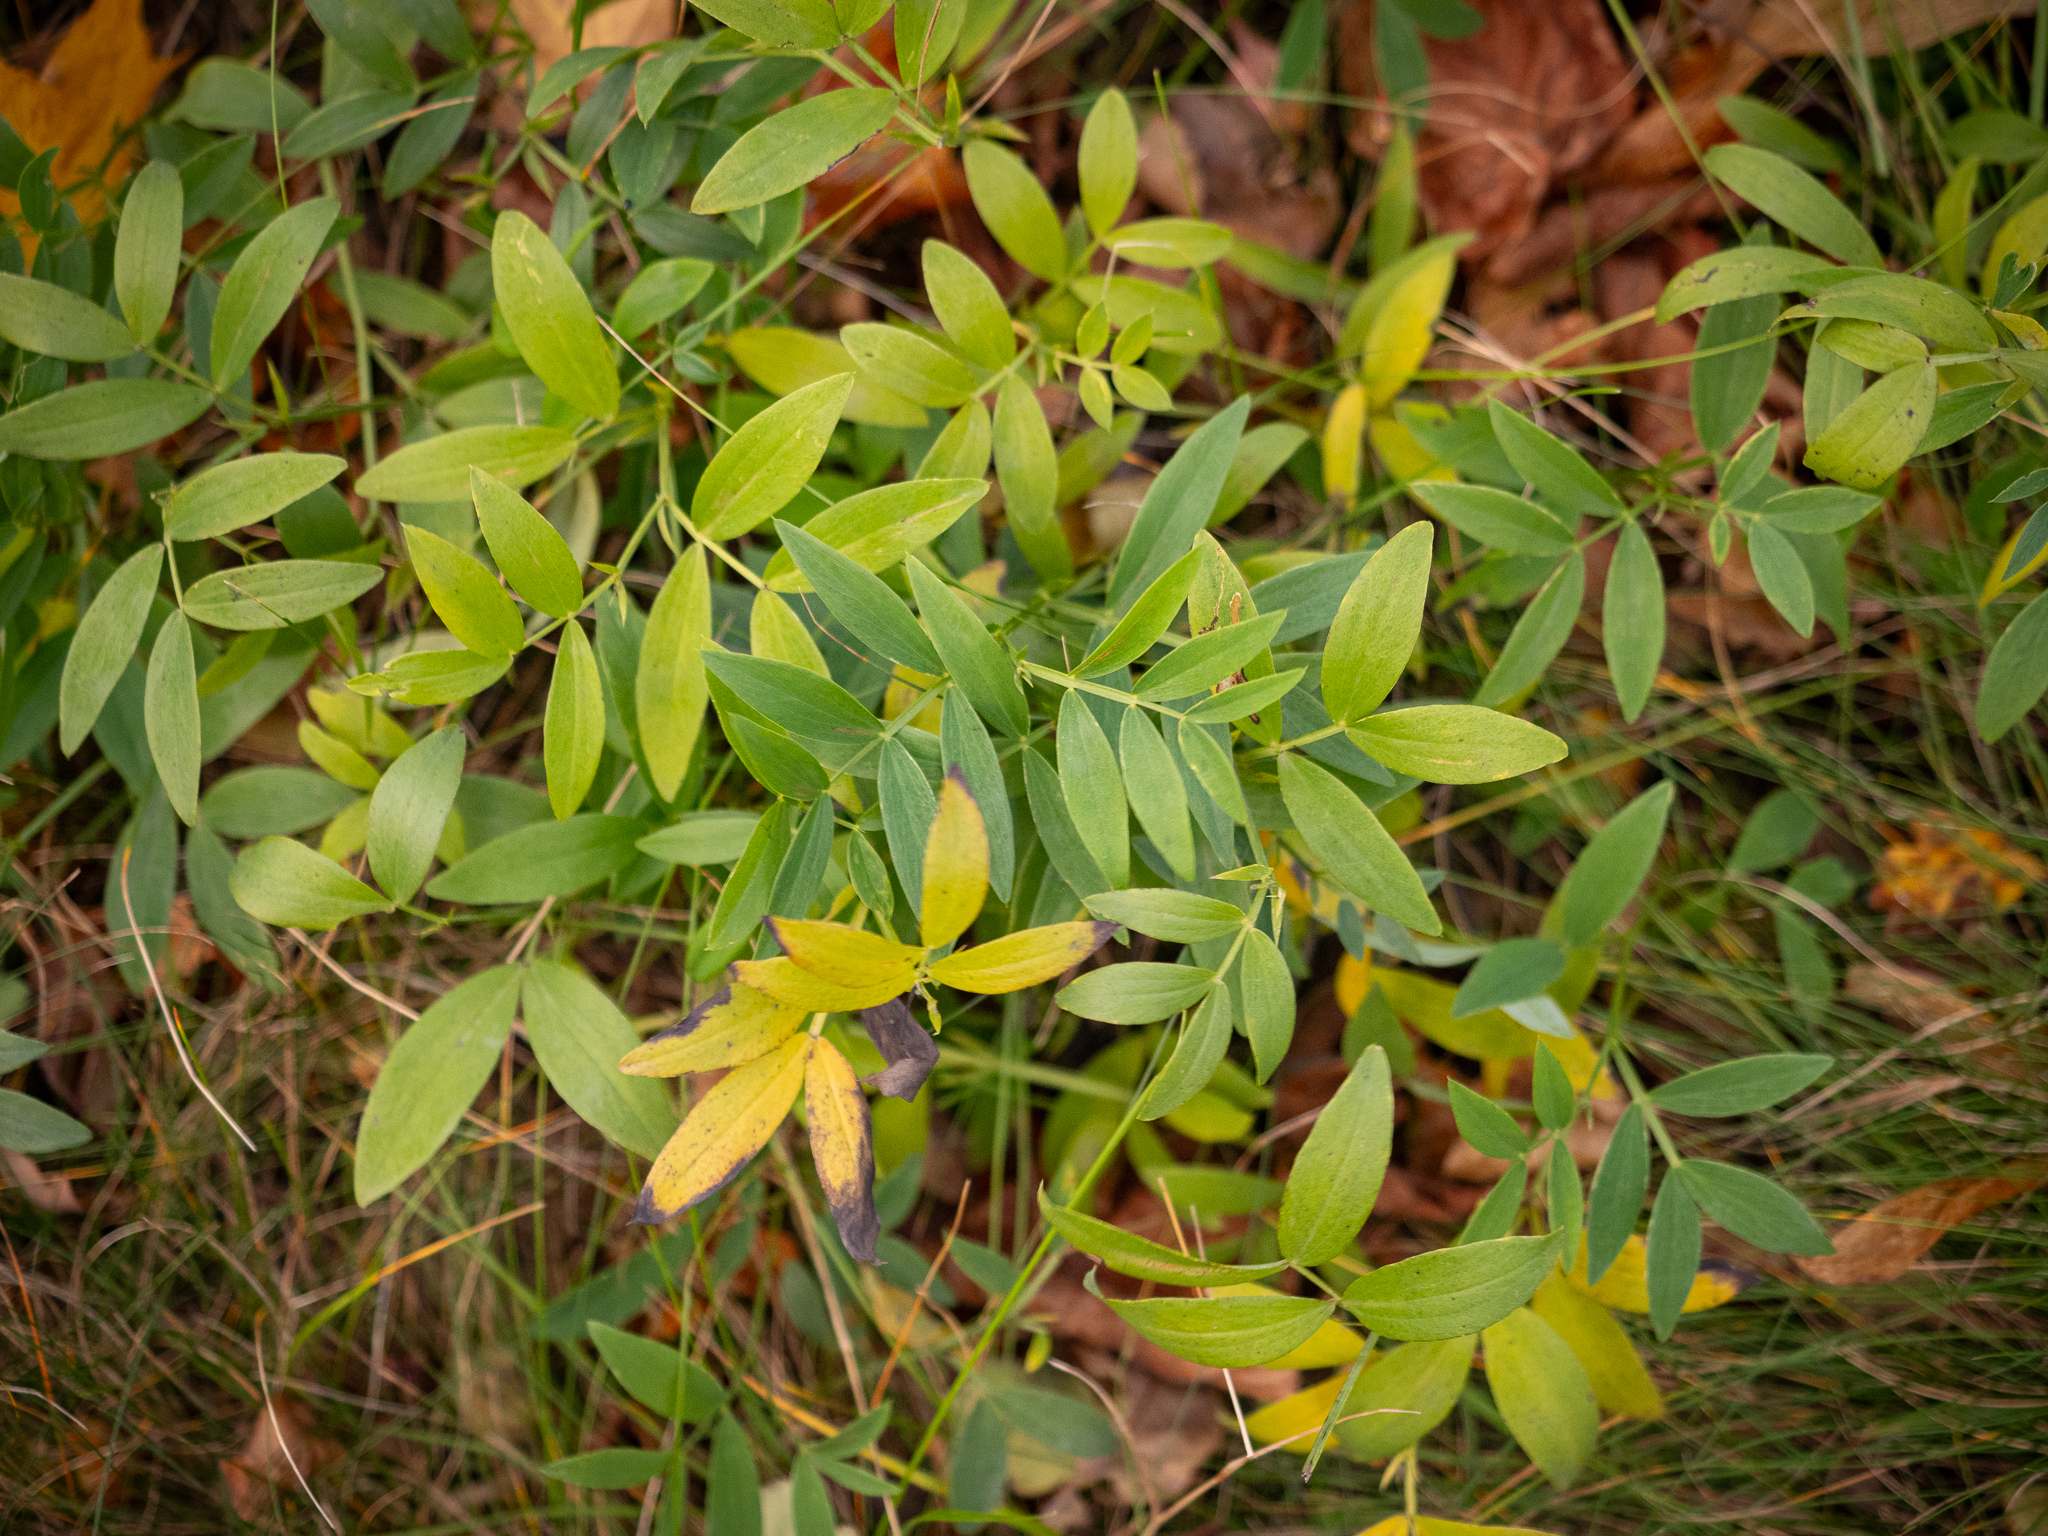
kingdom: Plantae
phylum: Tracheophyta
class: Magnoliopsida
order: Fabales
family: Fabaceae
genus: Lathyrus
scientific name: Lathyrus linifolius
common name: Bitter-vetch
